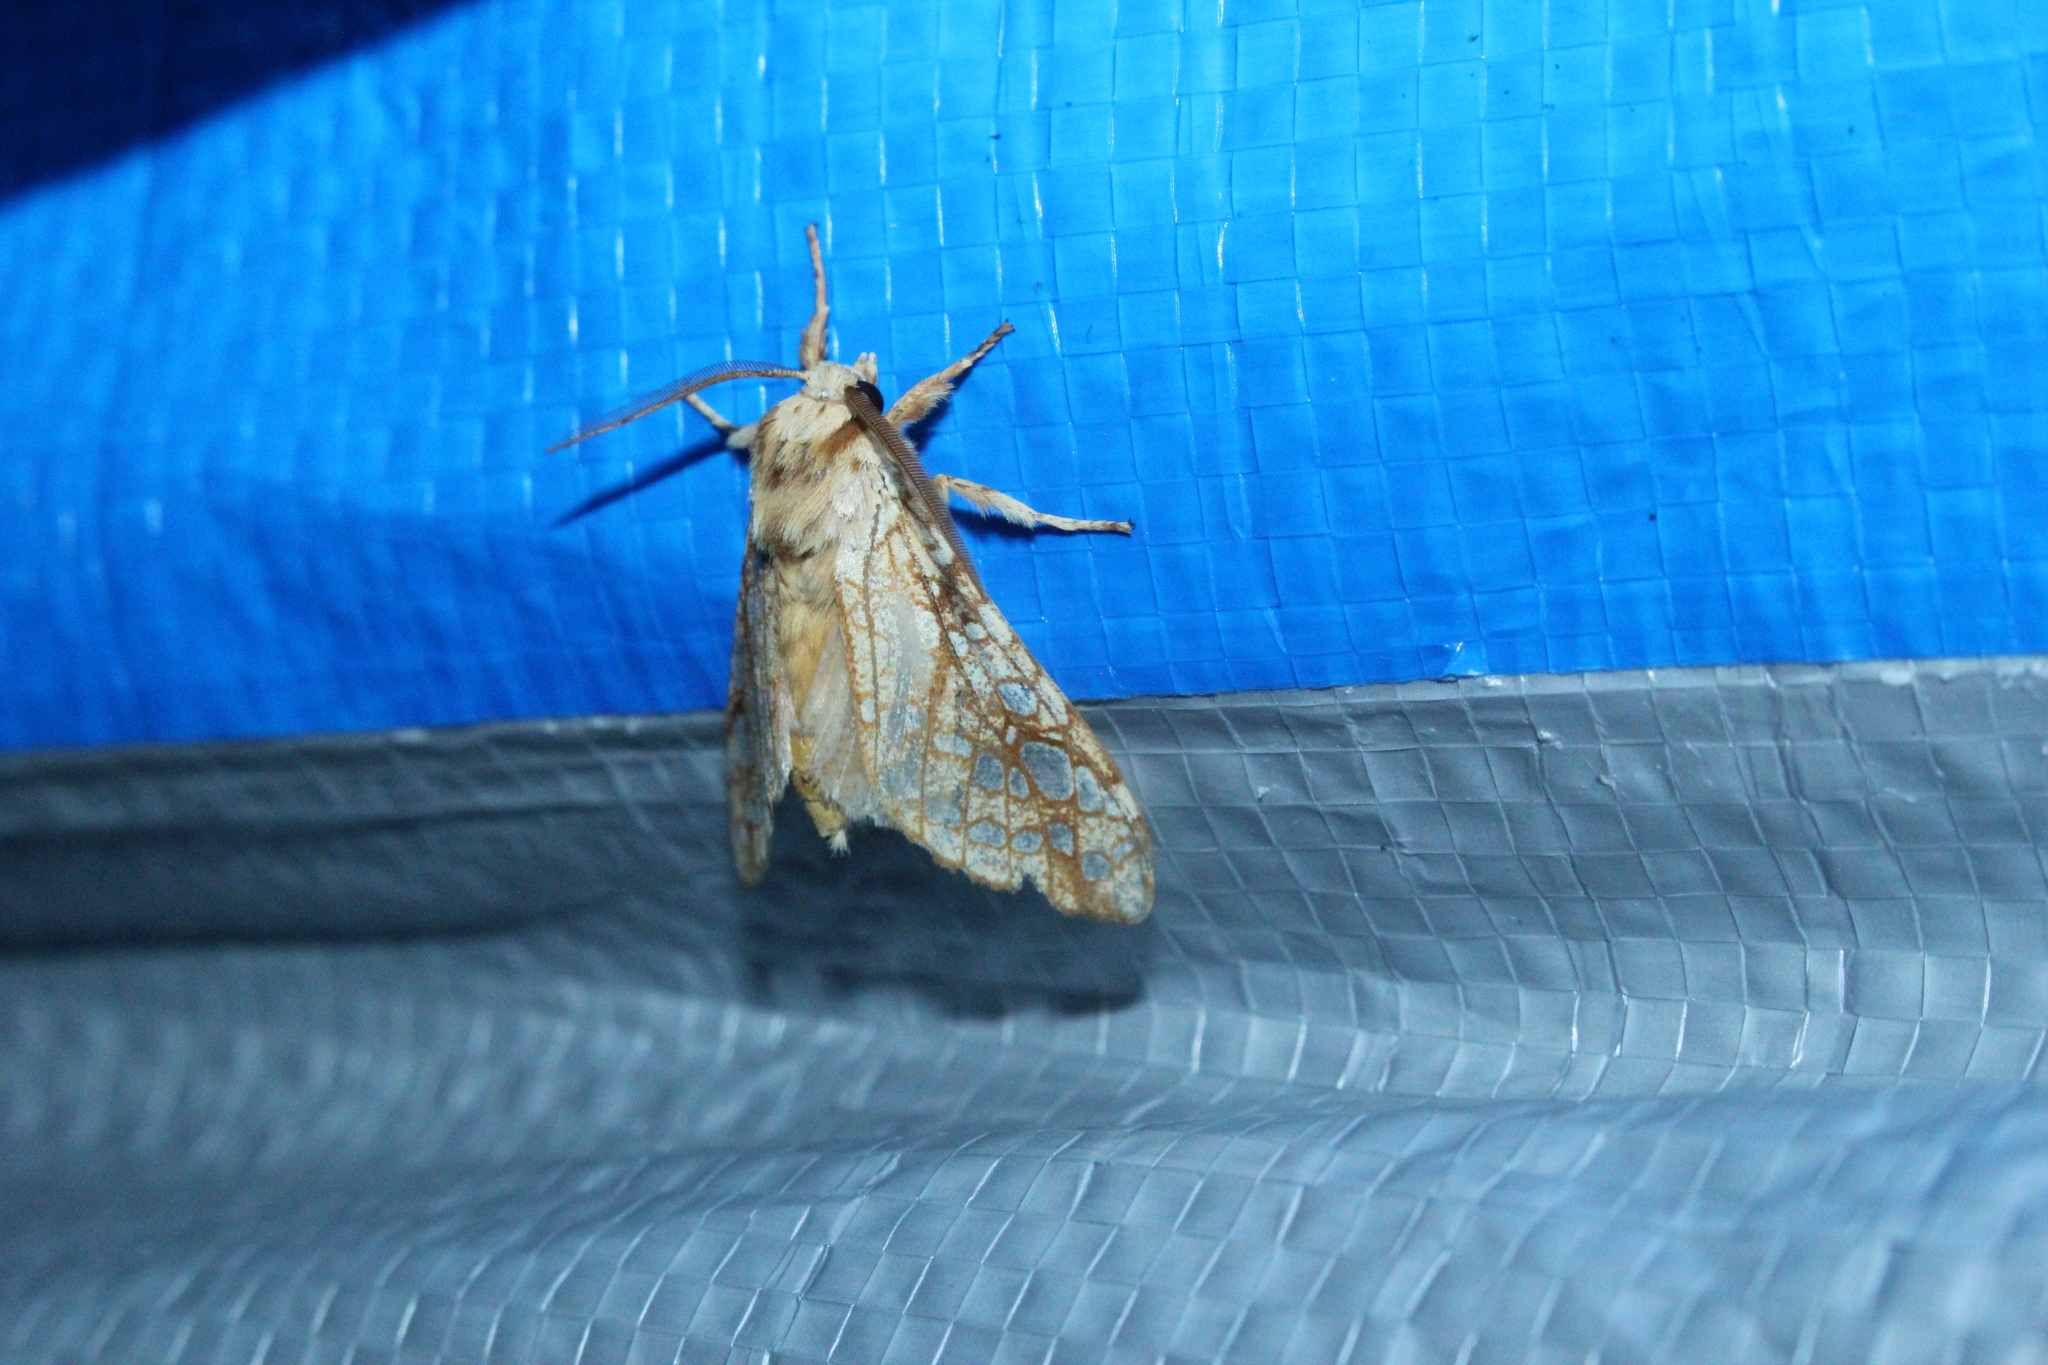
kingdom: Animalia
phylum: Arthropoda
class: Insecta
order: Lepidoptera
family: Erebidae
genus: Lophocampa
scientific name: Lophocampa caryae
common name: Hickory tussock moth
